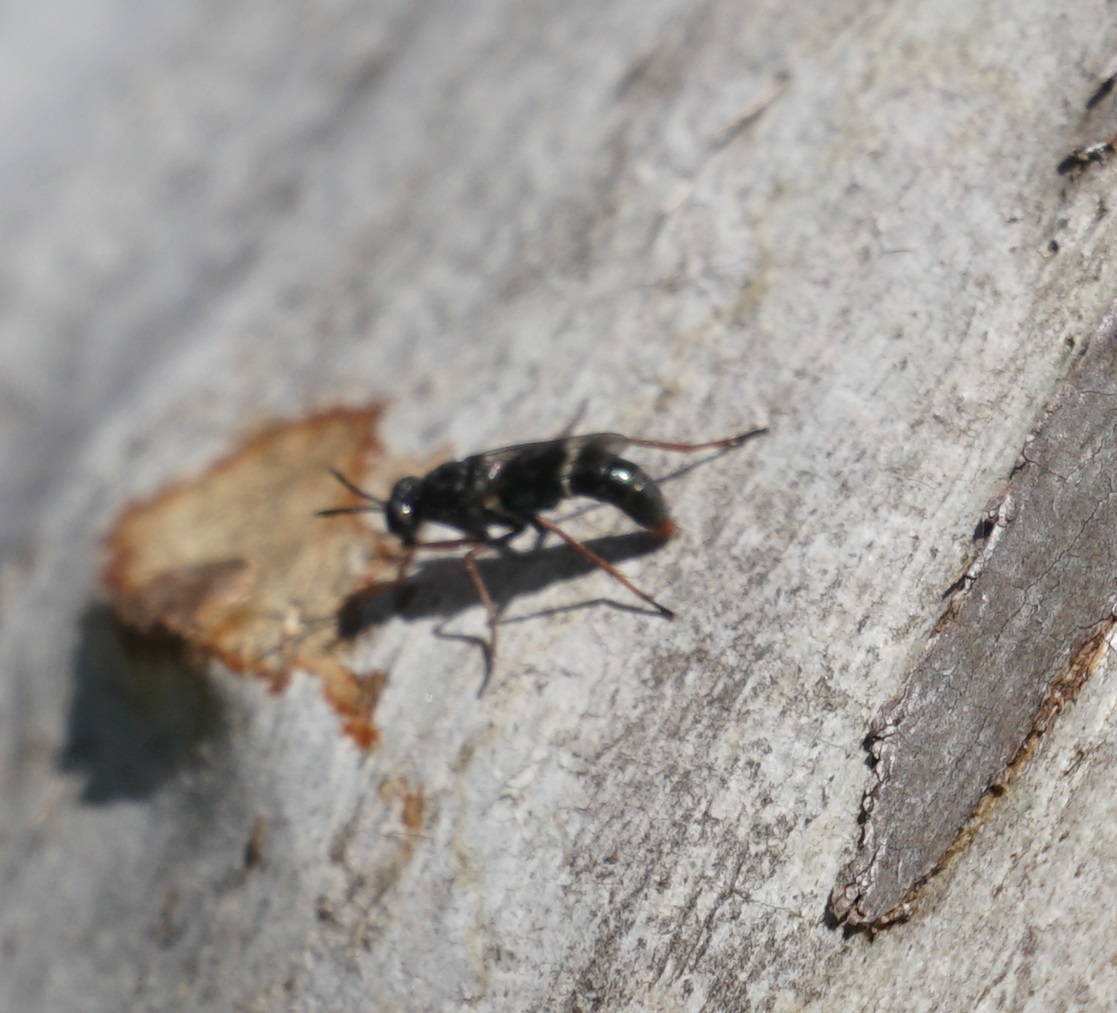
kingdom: Animalia
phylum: Arthropoda
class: Insecta
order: Diptera
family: Therevidae
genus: Agapophytus
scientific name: Agapophytus queenslandi
